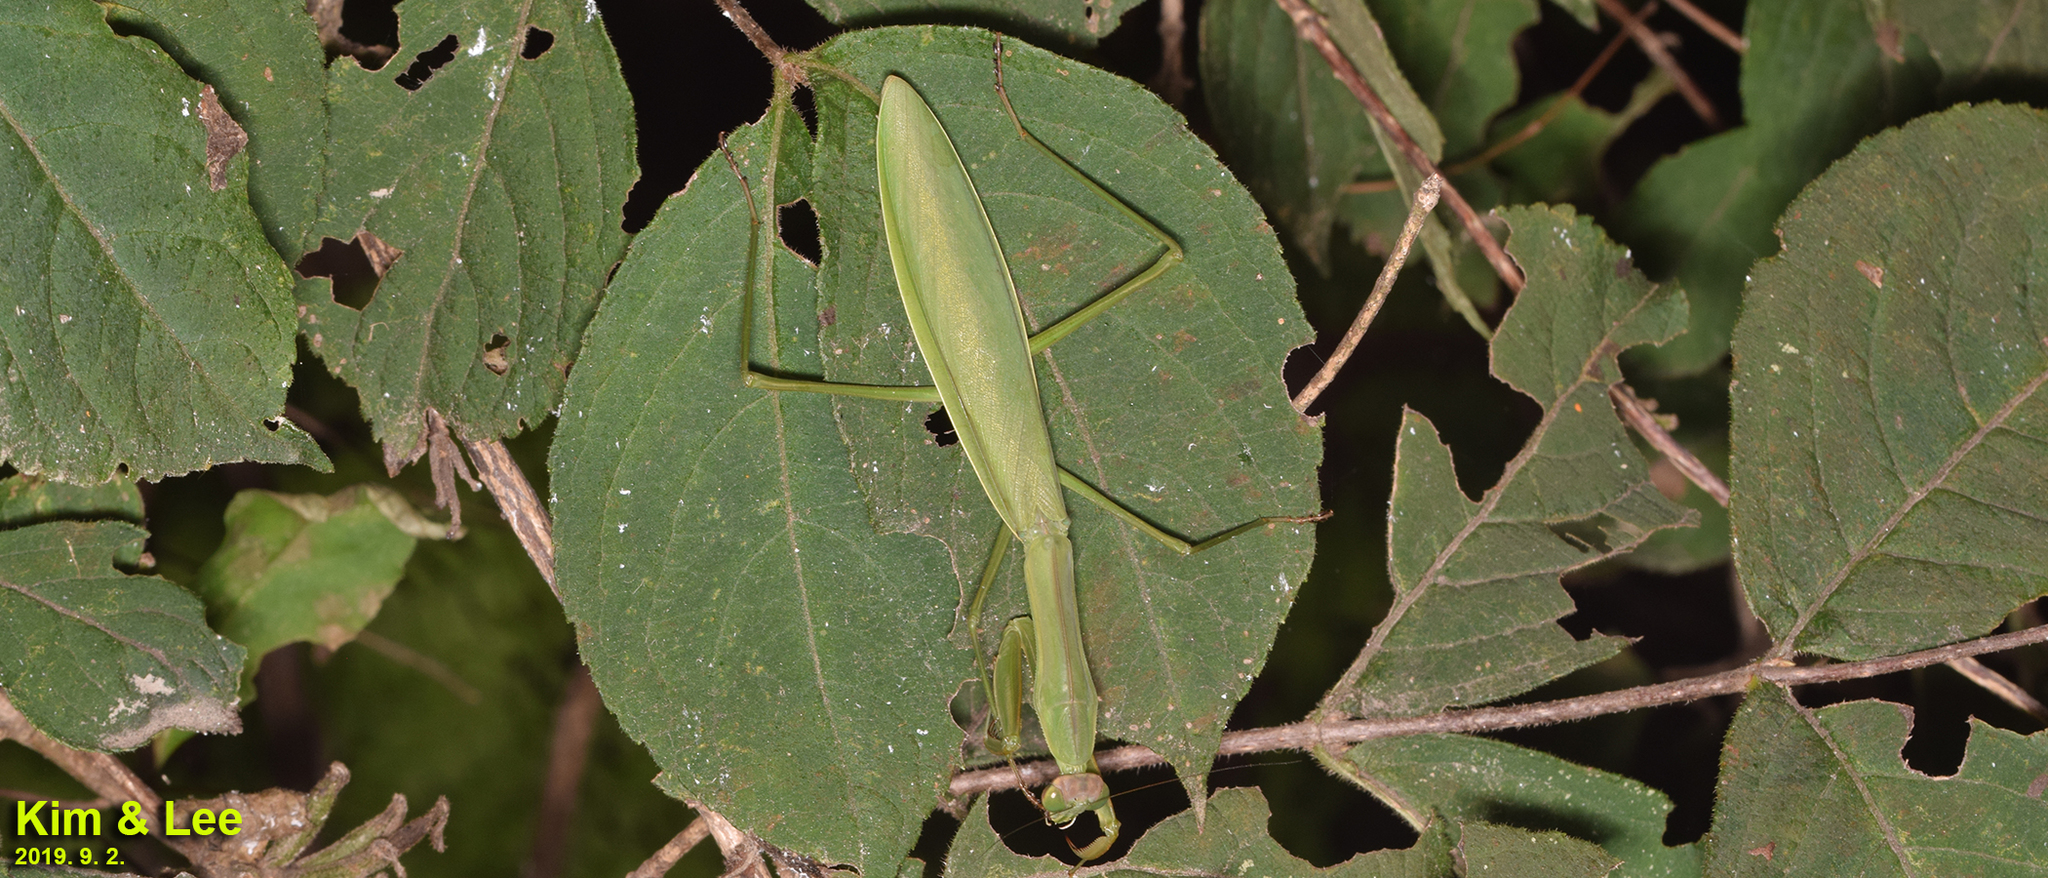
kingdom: Animalia
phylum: Arthropoda
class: Insecta
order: Mantodea
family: Mantidae
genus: Tenodera
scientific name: Tenodera sinensis
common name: Chinese mantis
